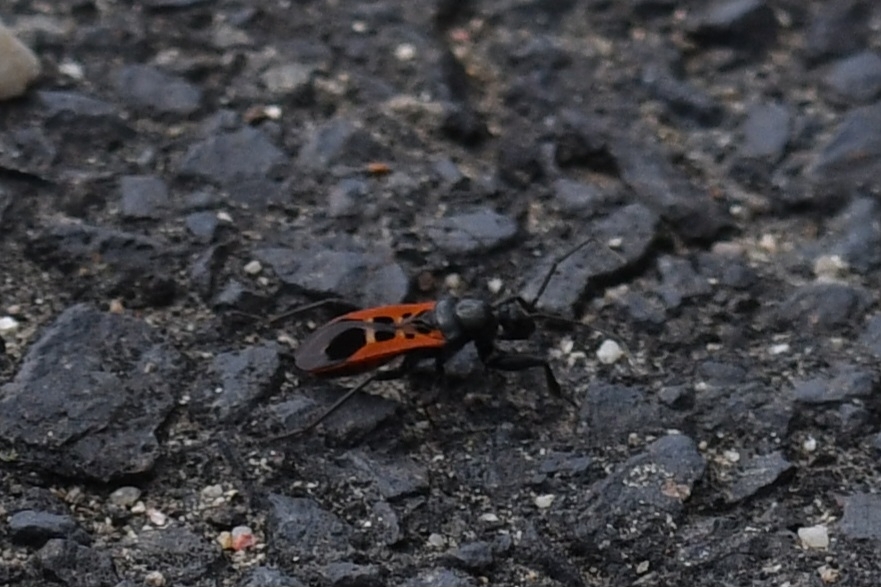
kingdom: Animalia
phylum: Arthropoda
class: Insecta
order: Hemiptera
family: Reduviidae
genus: Peirates
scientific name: Peirates stridulus
